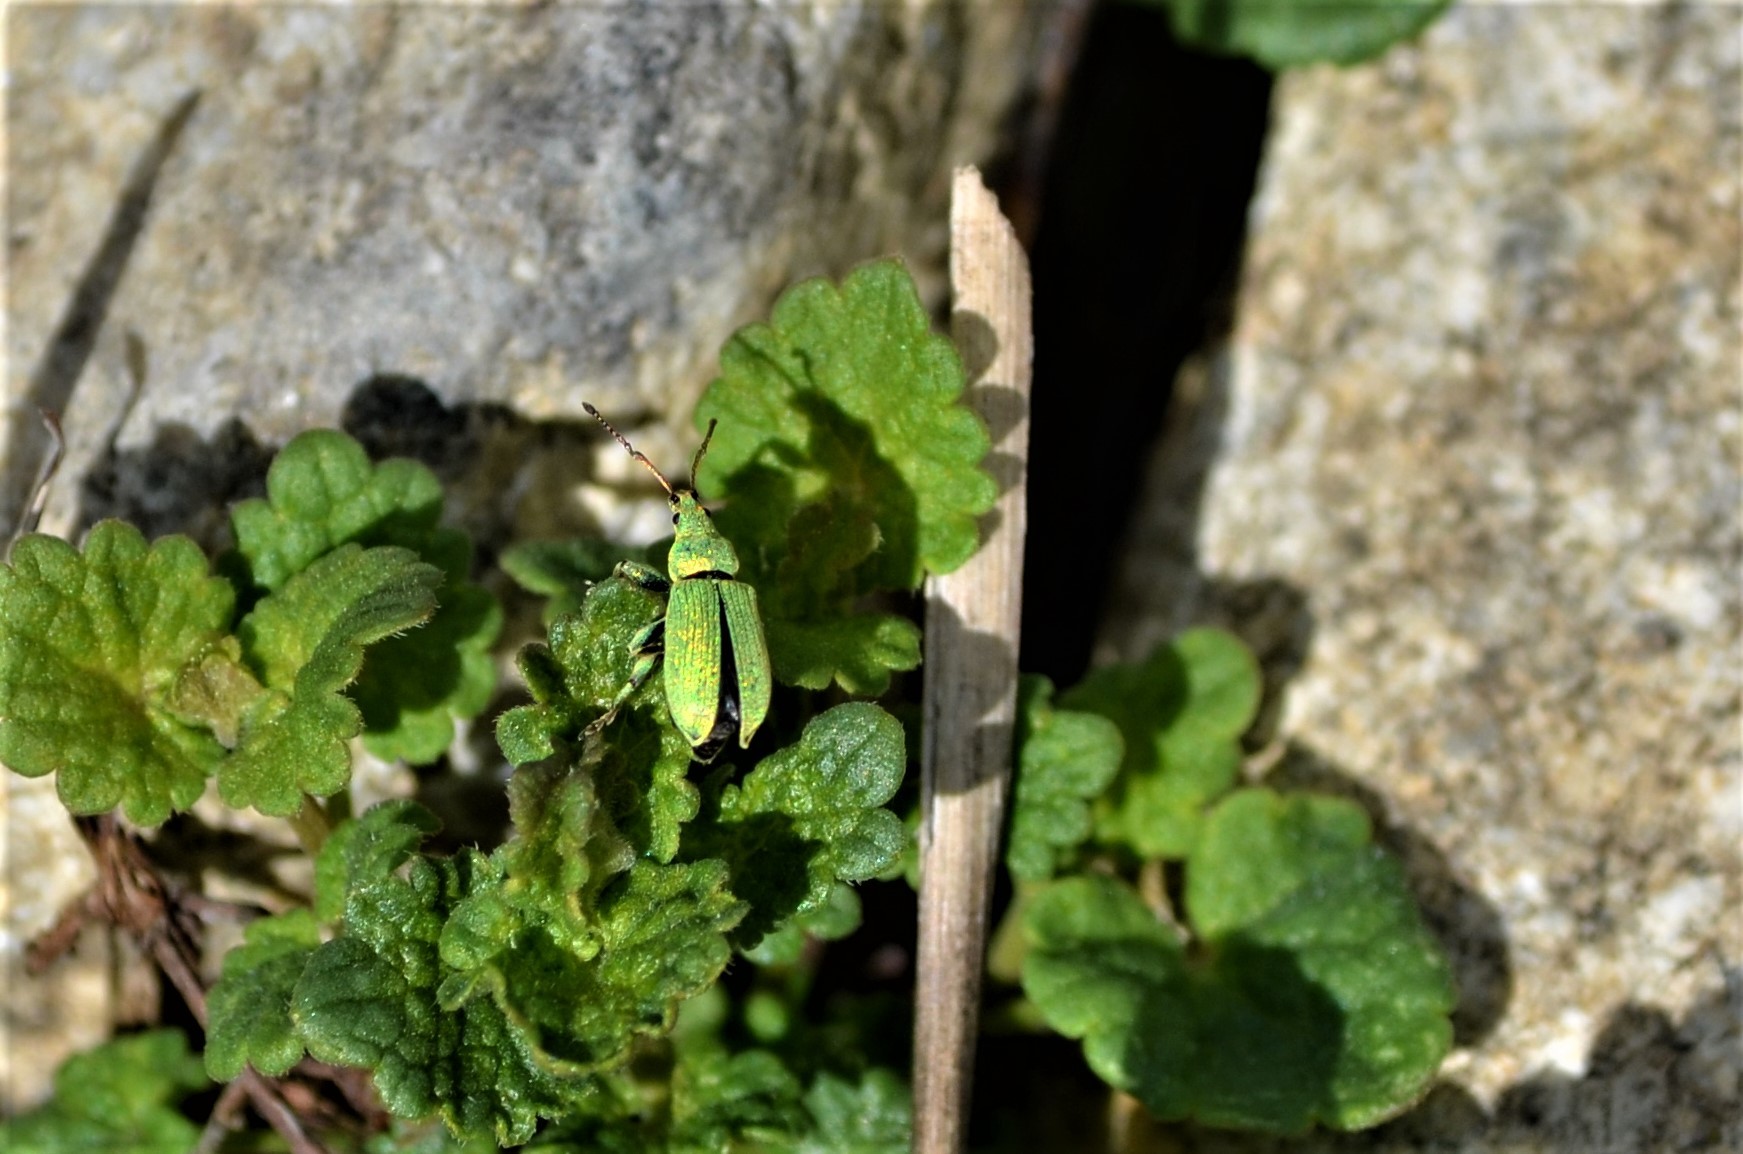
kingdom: Animalia
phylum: Arthropoda
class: Insecta
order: Coleoptera
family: Curculionidae
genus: Phyllobius
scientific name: Phyllobius maculicornis
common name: Green leaf weevil
